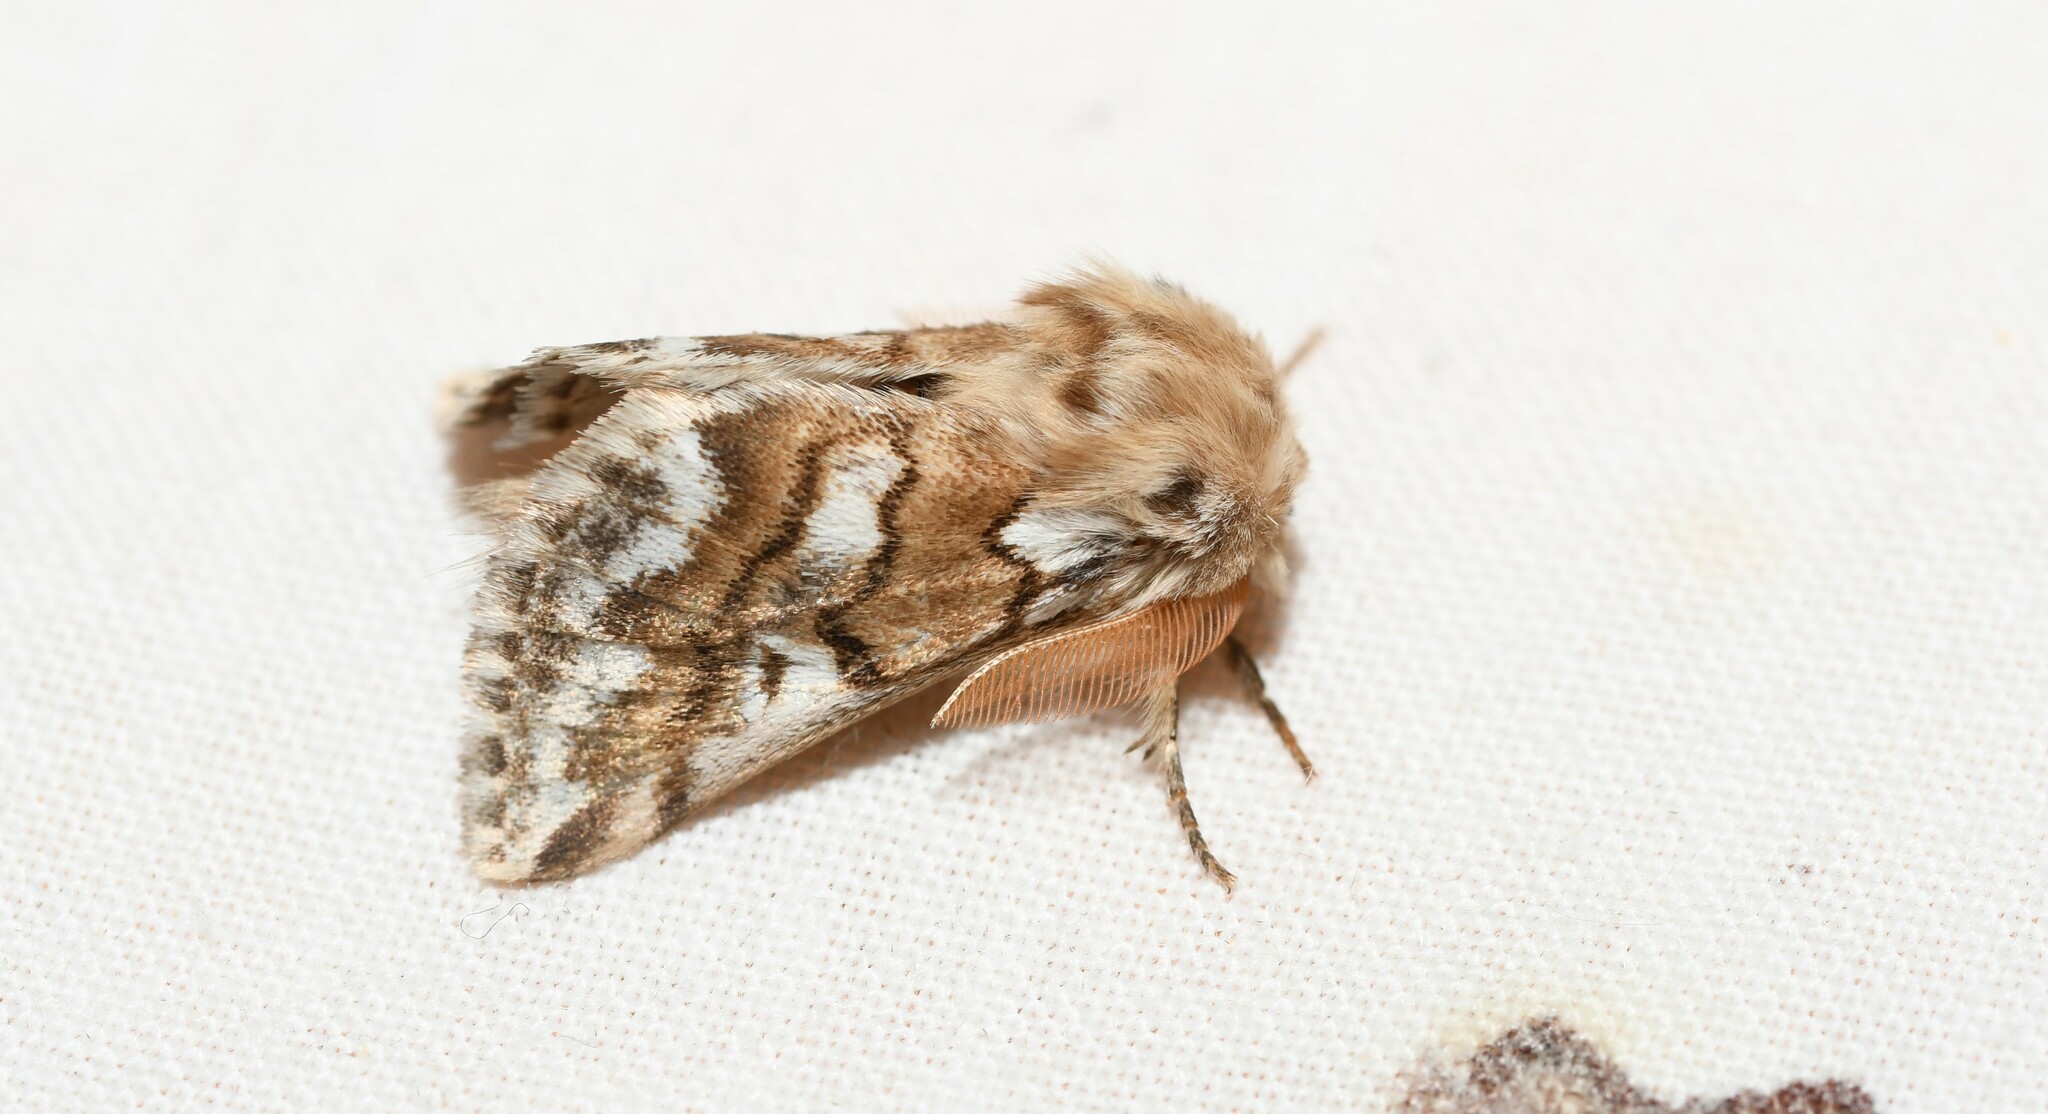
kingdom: Animalia
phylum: Arthropoda
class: Insecta
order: Lepidoptera
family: Notodontidae
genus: Thaumetopoea
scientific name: Thaumetopoea herculeana
